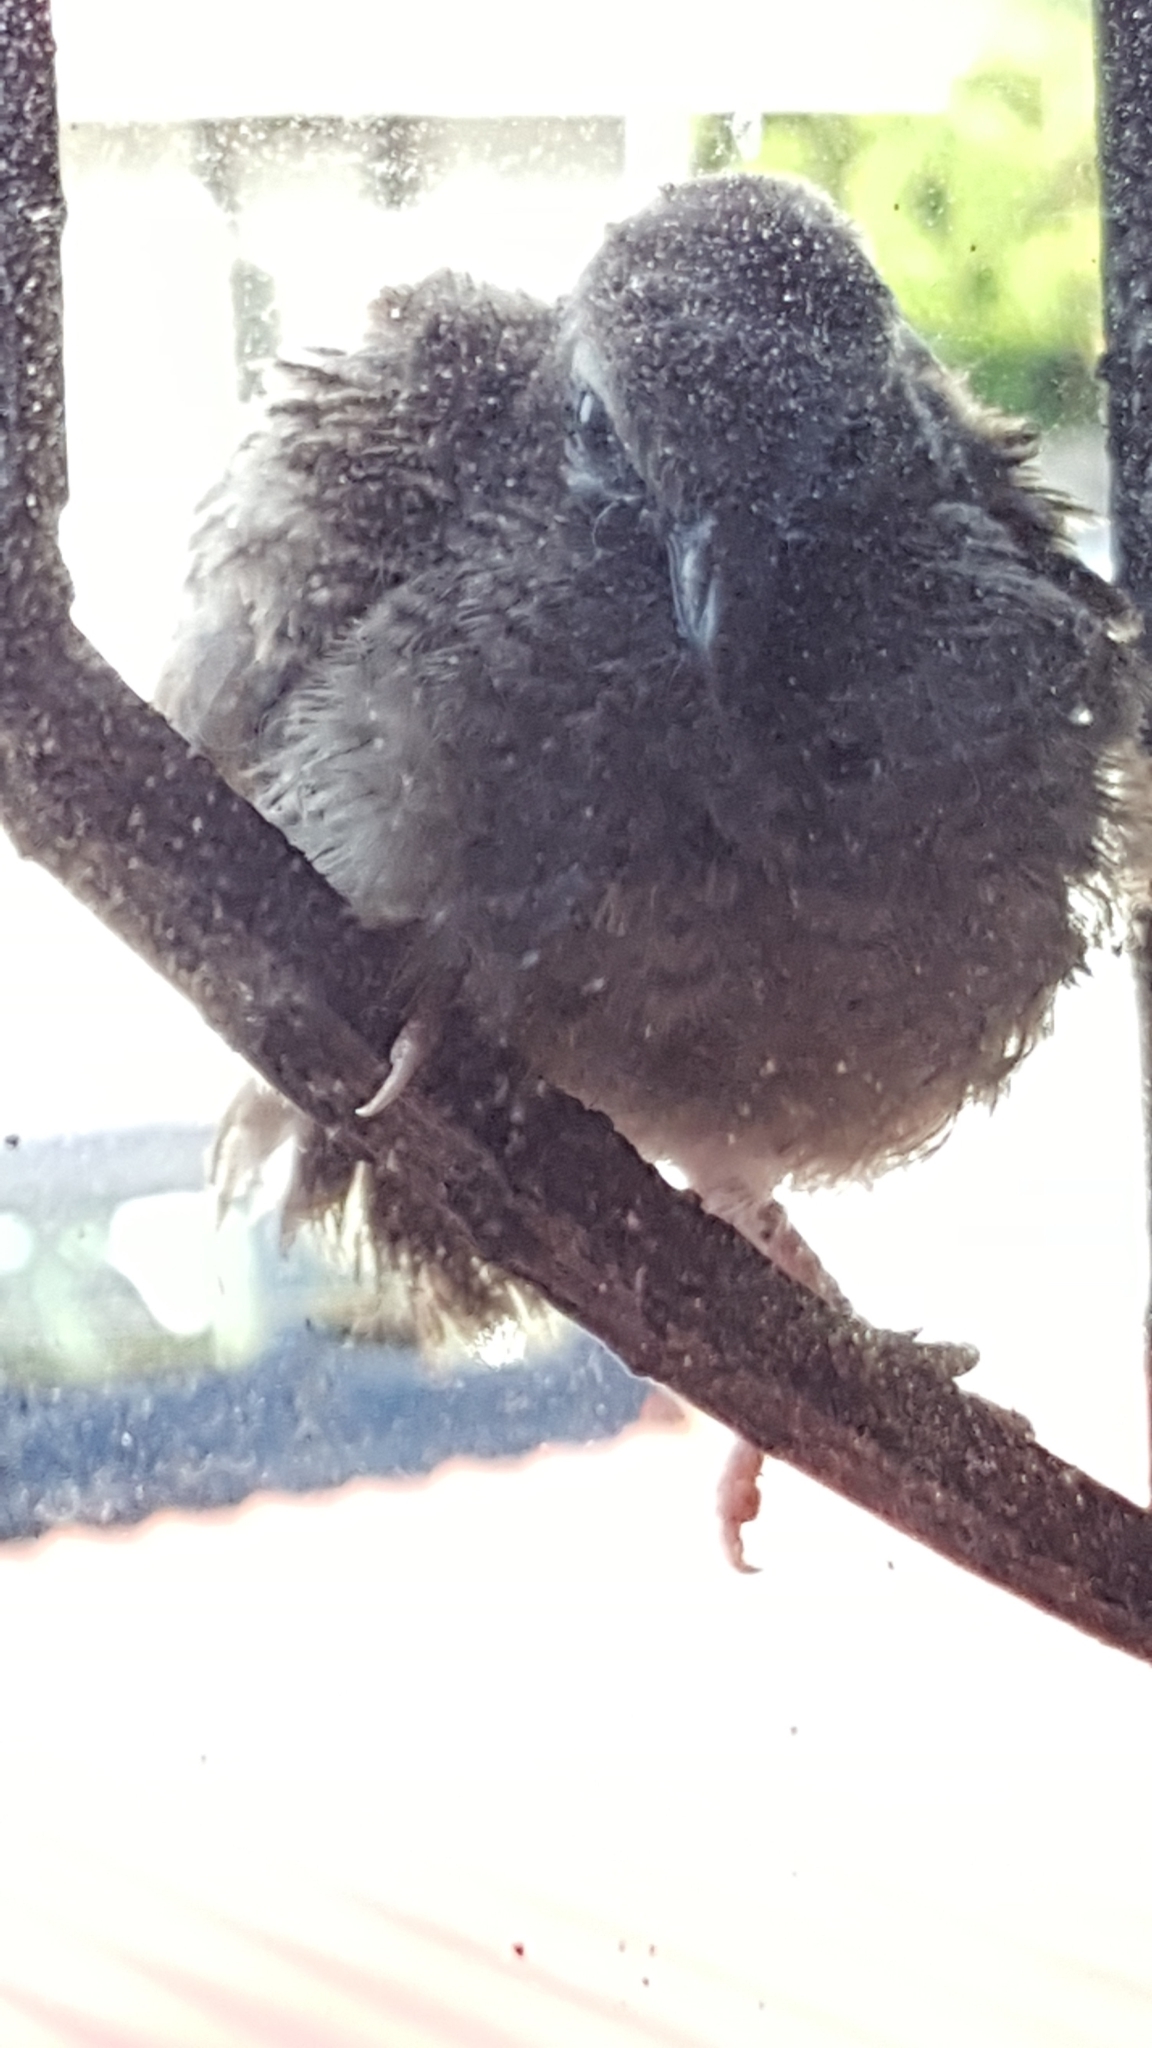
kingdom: Animalia
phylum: Chordata
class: Aves
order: Columbiformes
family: Columbidae
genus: Geopelia
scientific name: Geopelia striata
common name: Zebra dove
